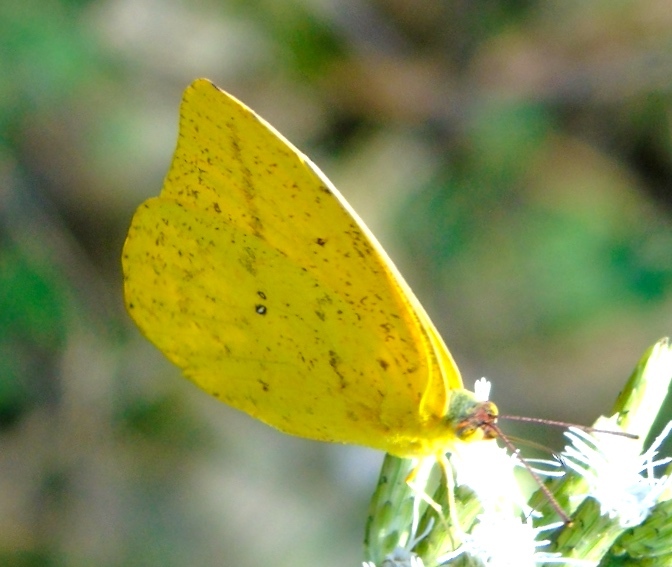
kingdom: Animalia
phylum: Arthropoda
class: Insecta
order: Lepidoptera
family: Pieridae
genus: Phoebis
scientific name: Phoebis agarithe
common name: Large orange sulphur
